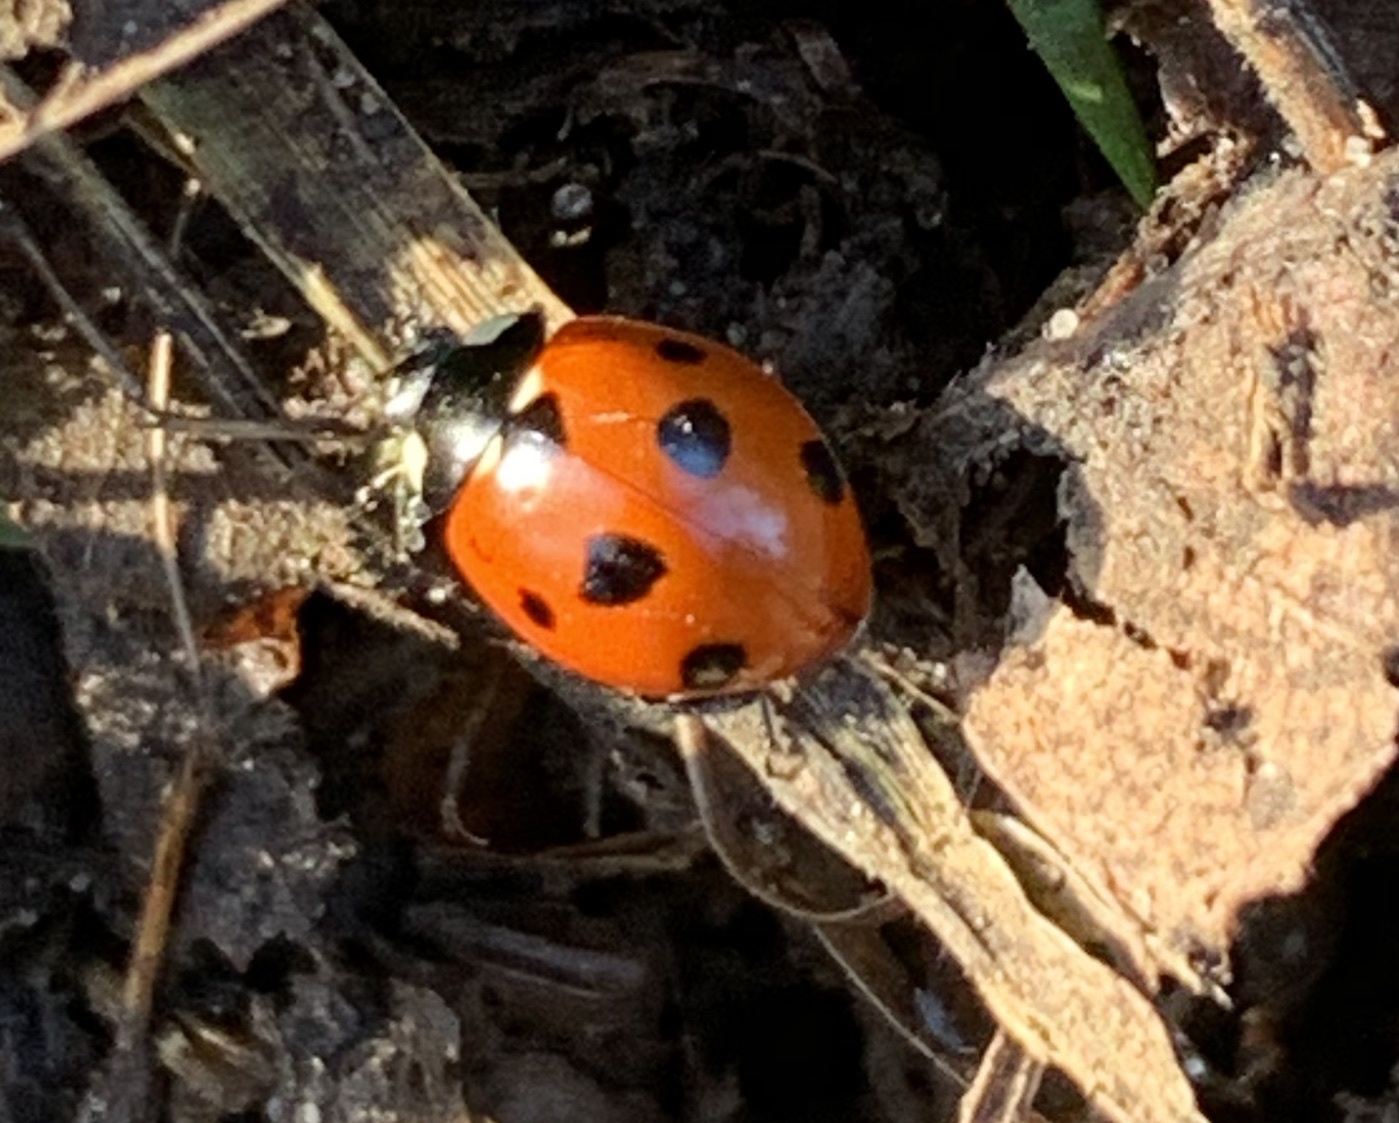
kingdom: Animalia
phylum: Arthropoda
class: Insecta
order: Coleoptera
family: Coccinellidae
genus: Coccinella
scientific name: Coccinella septempunctata
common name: Sevenspotted lady beetle
